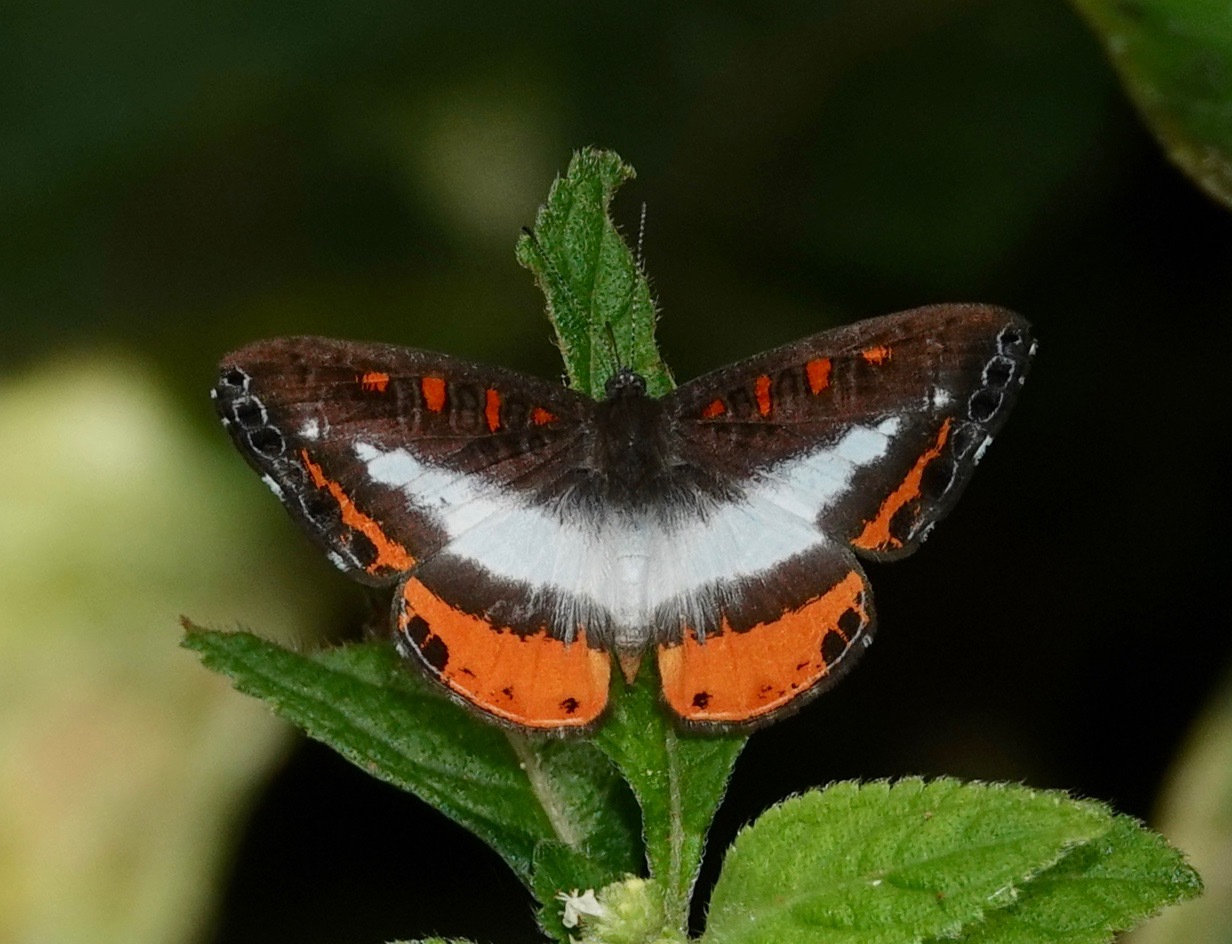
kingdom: Animalia
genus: Nymphidium
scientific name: Nymphidium lisimon
